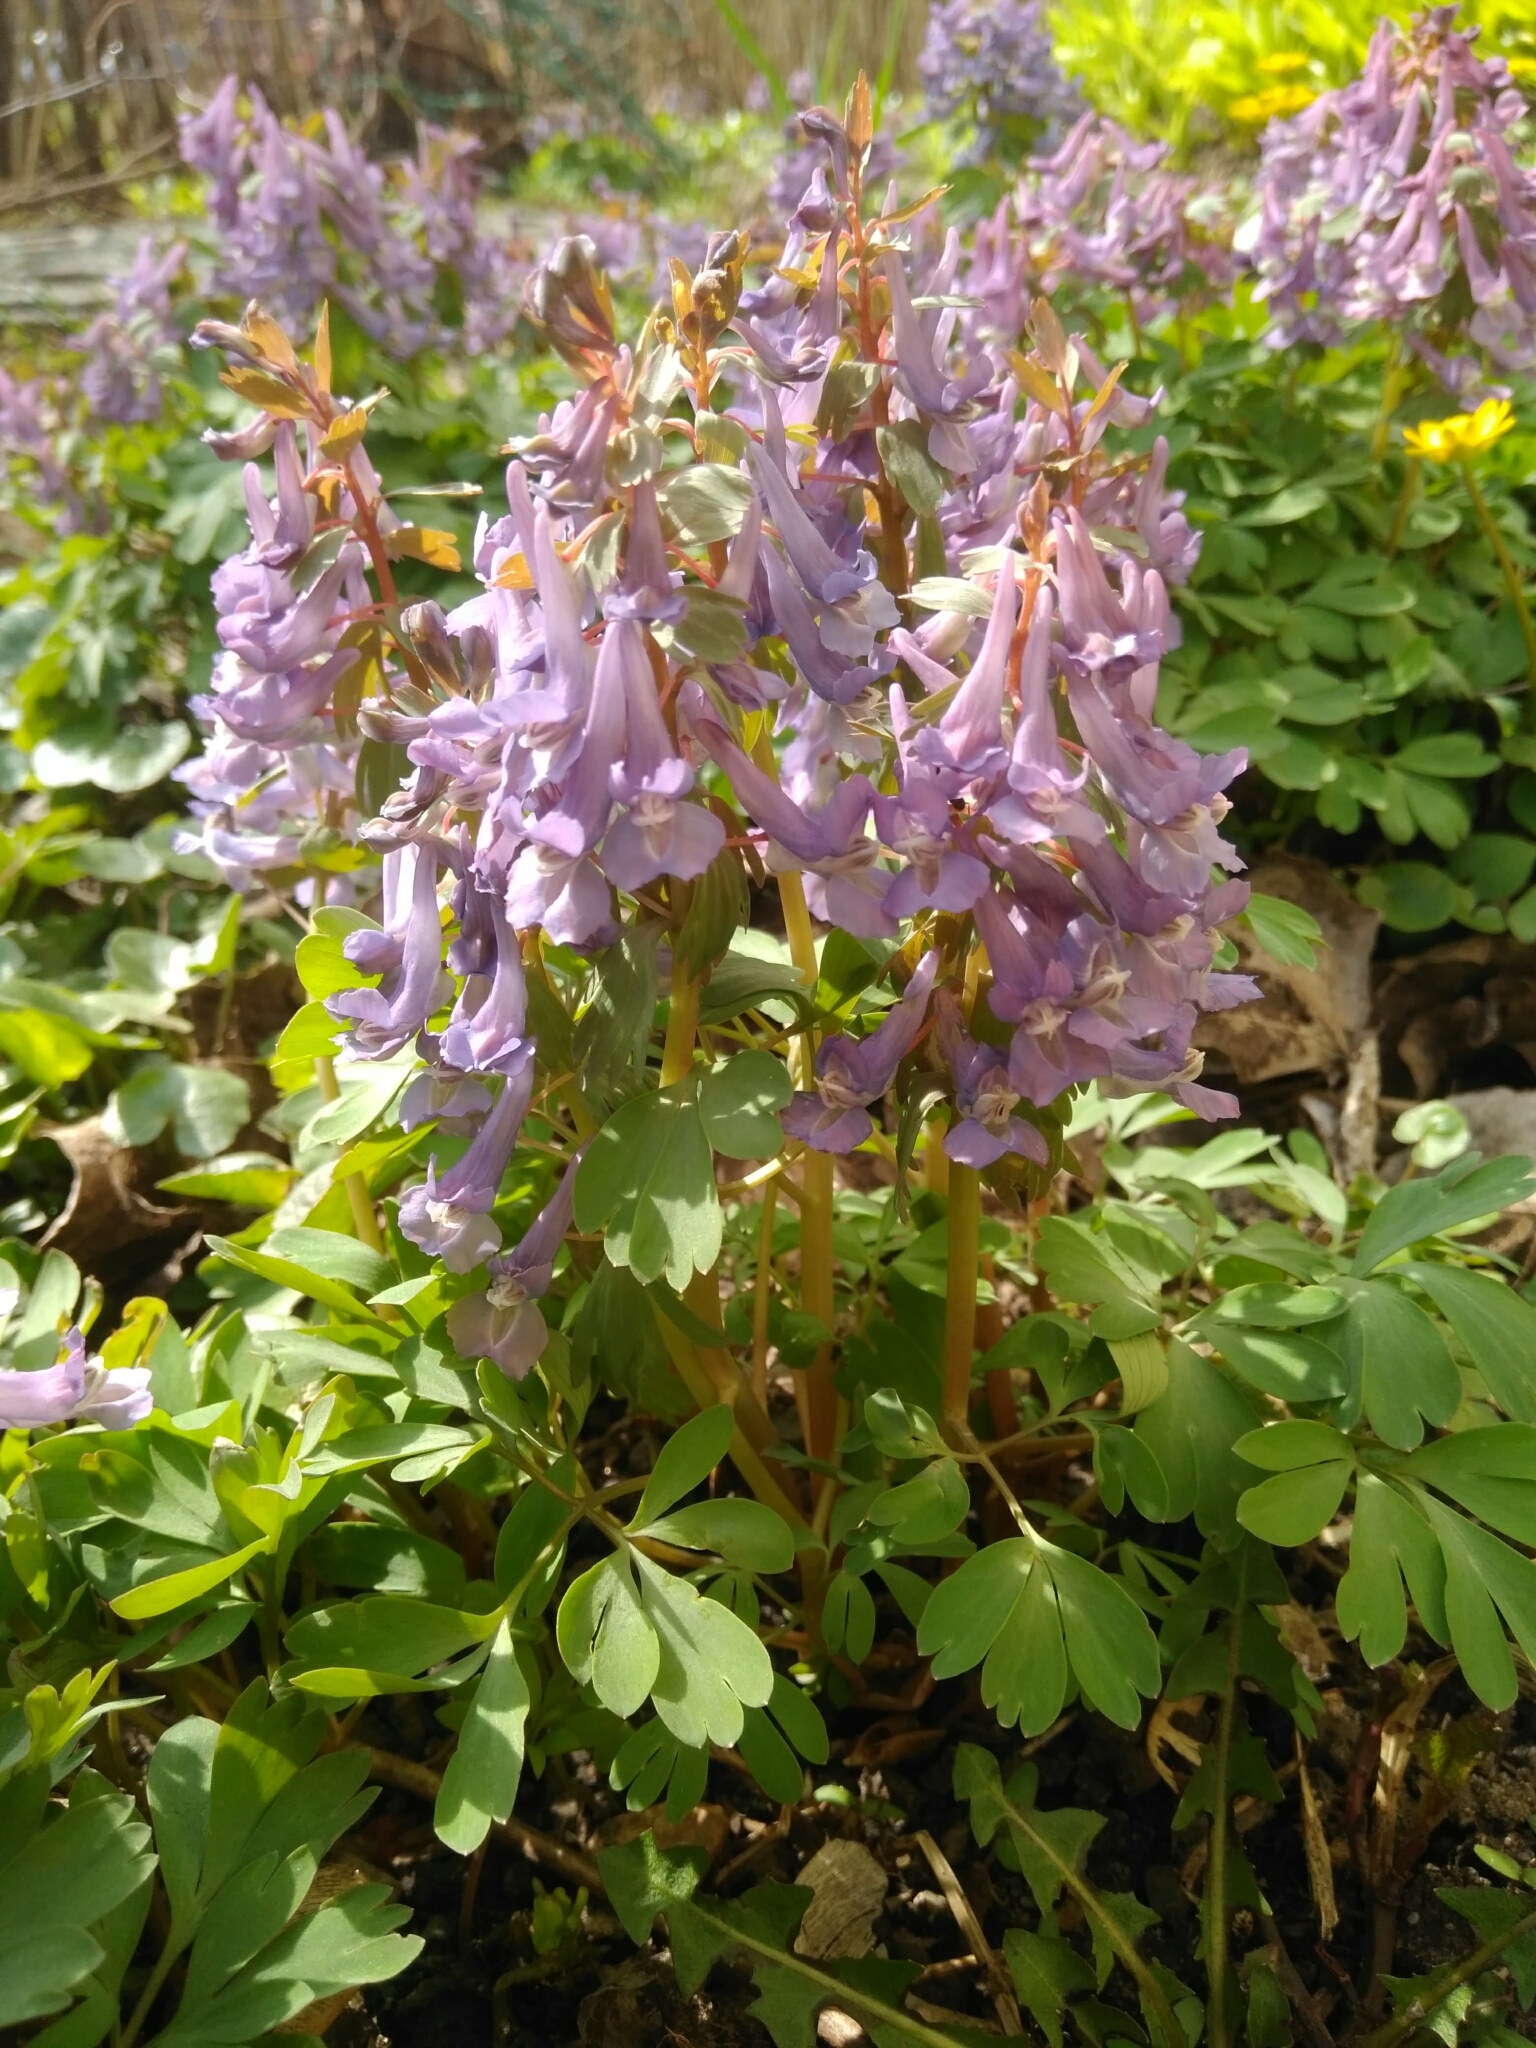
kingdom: Plantae
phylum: Tracheophyta
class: Magnoliopsida
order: Ranunculales
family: Papaveraceae
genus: Corydalis
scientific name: Corydalis solida
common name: Bird-in-a-bush
